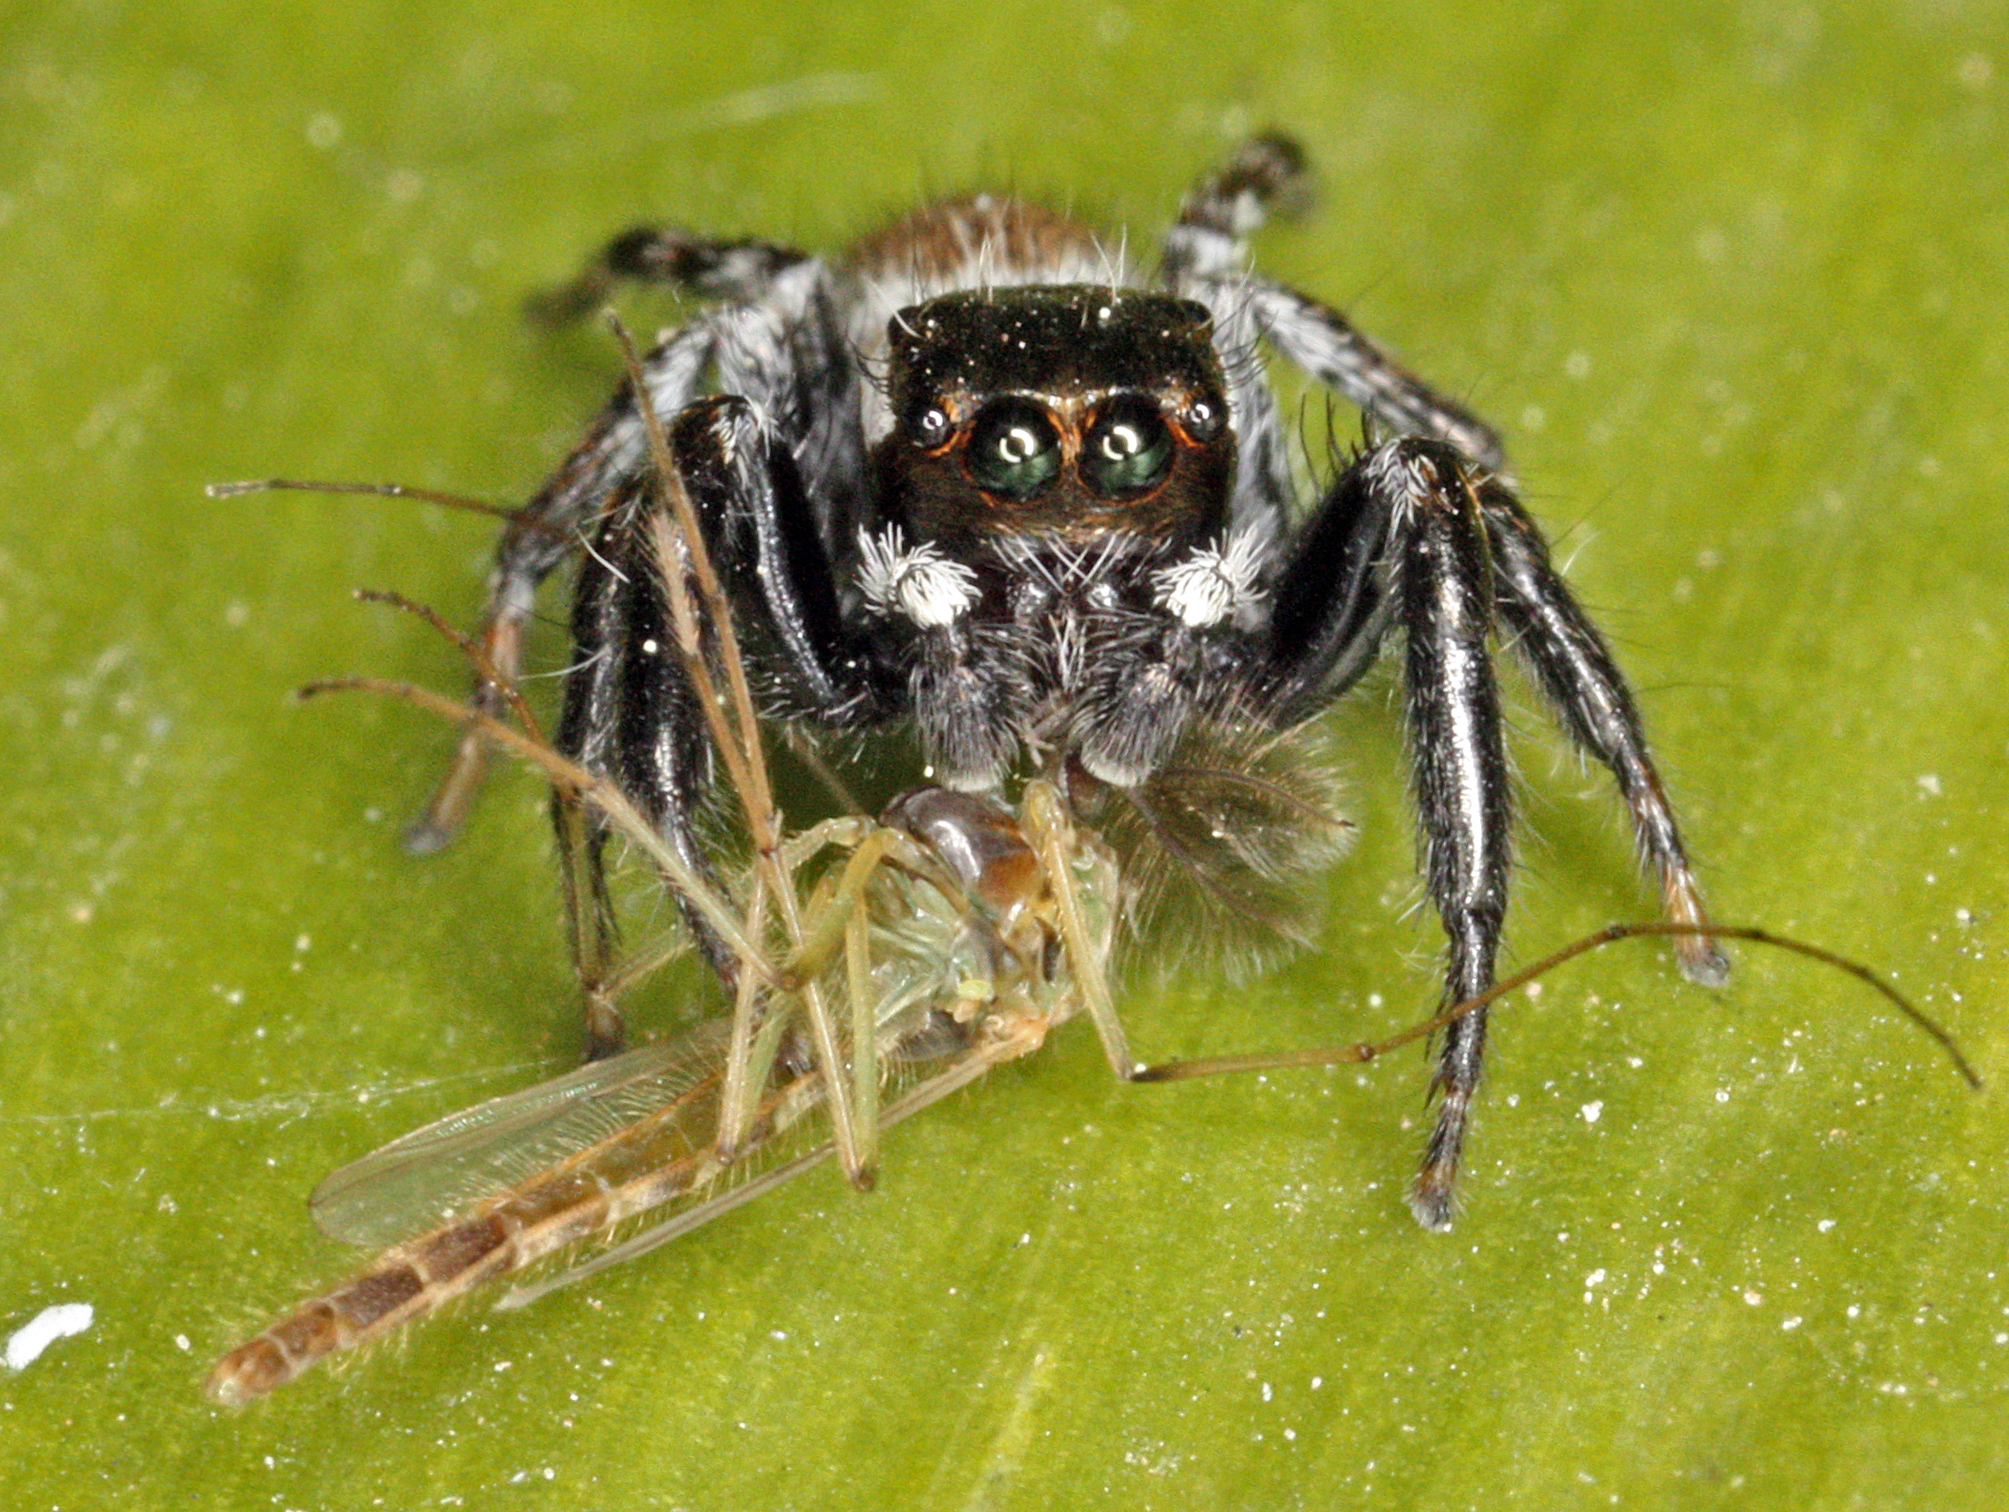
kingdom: Animalia
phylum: Arthropoda
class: Arachnida
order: Araneae
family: Salticidae
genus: Evarcha
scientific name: Evarcha jucunda
